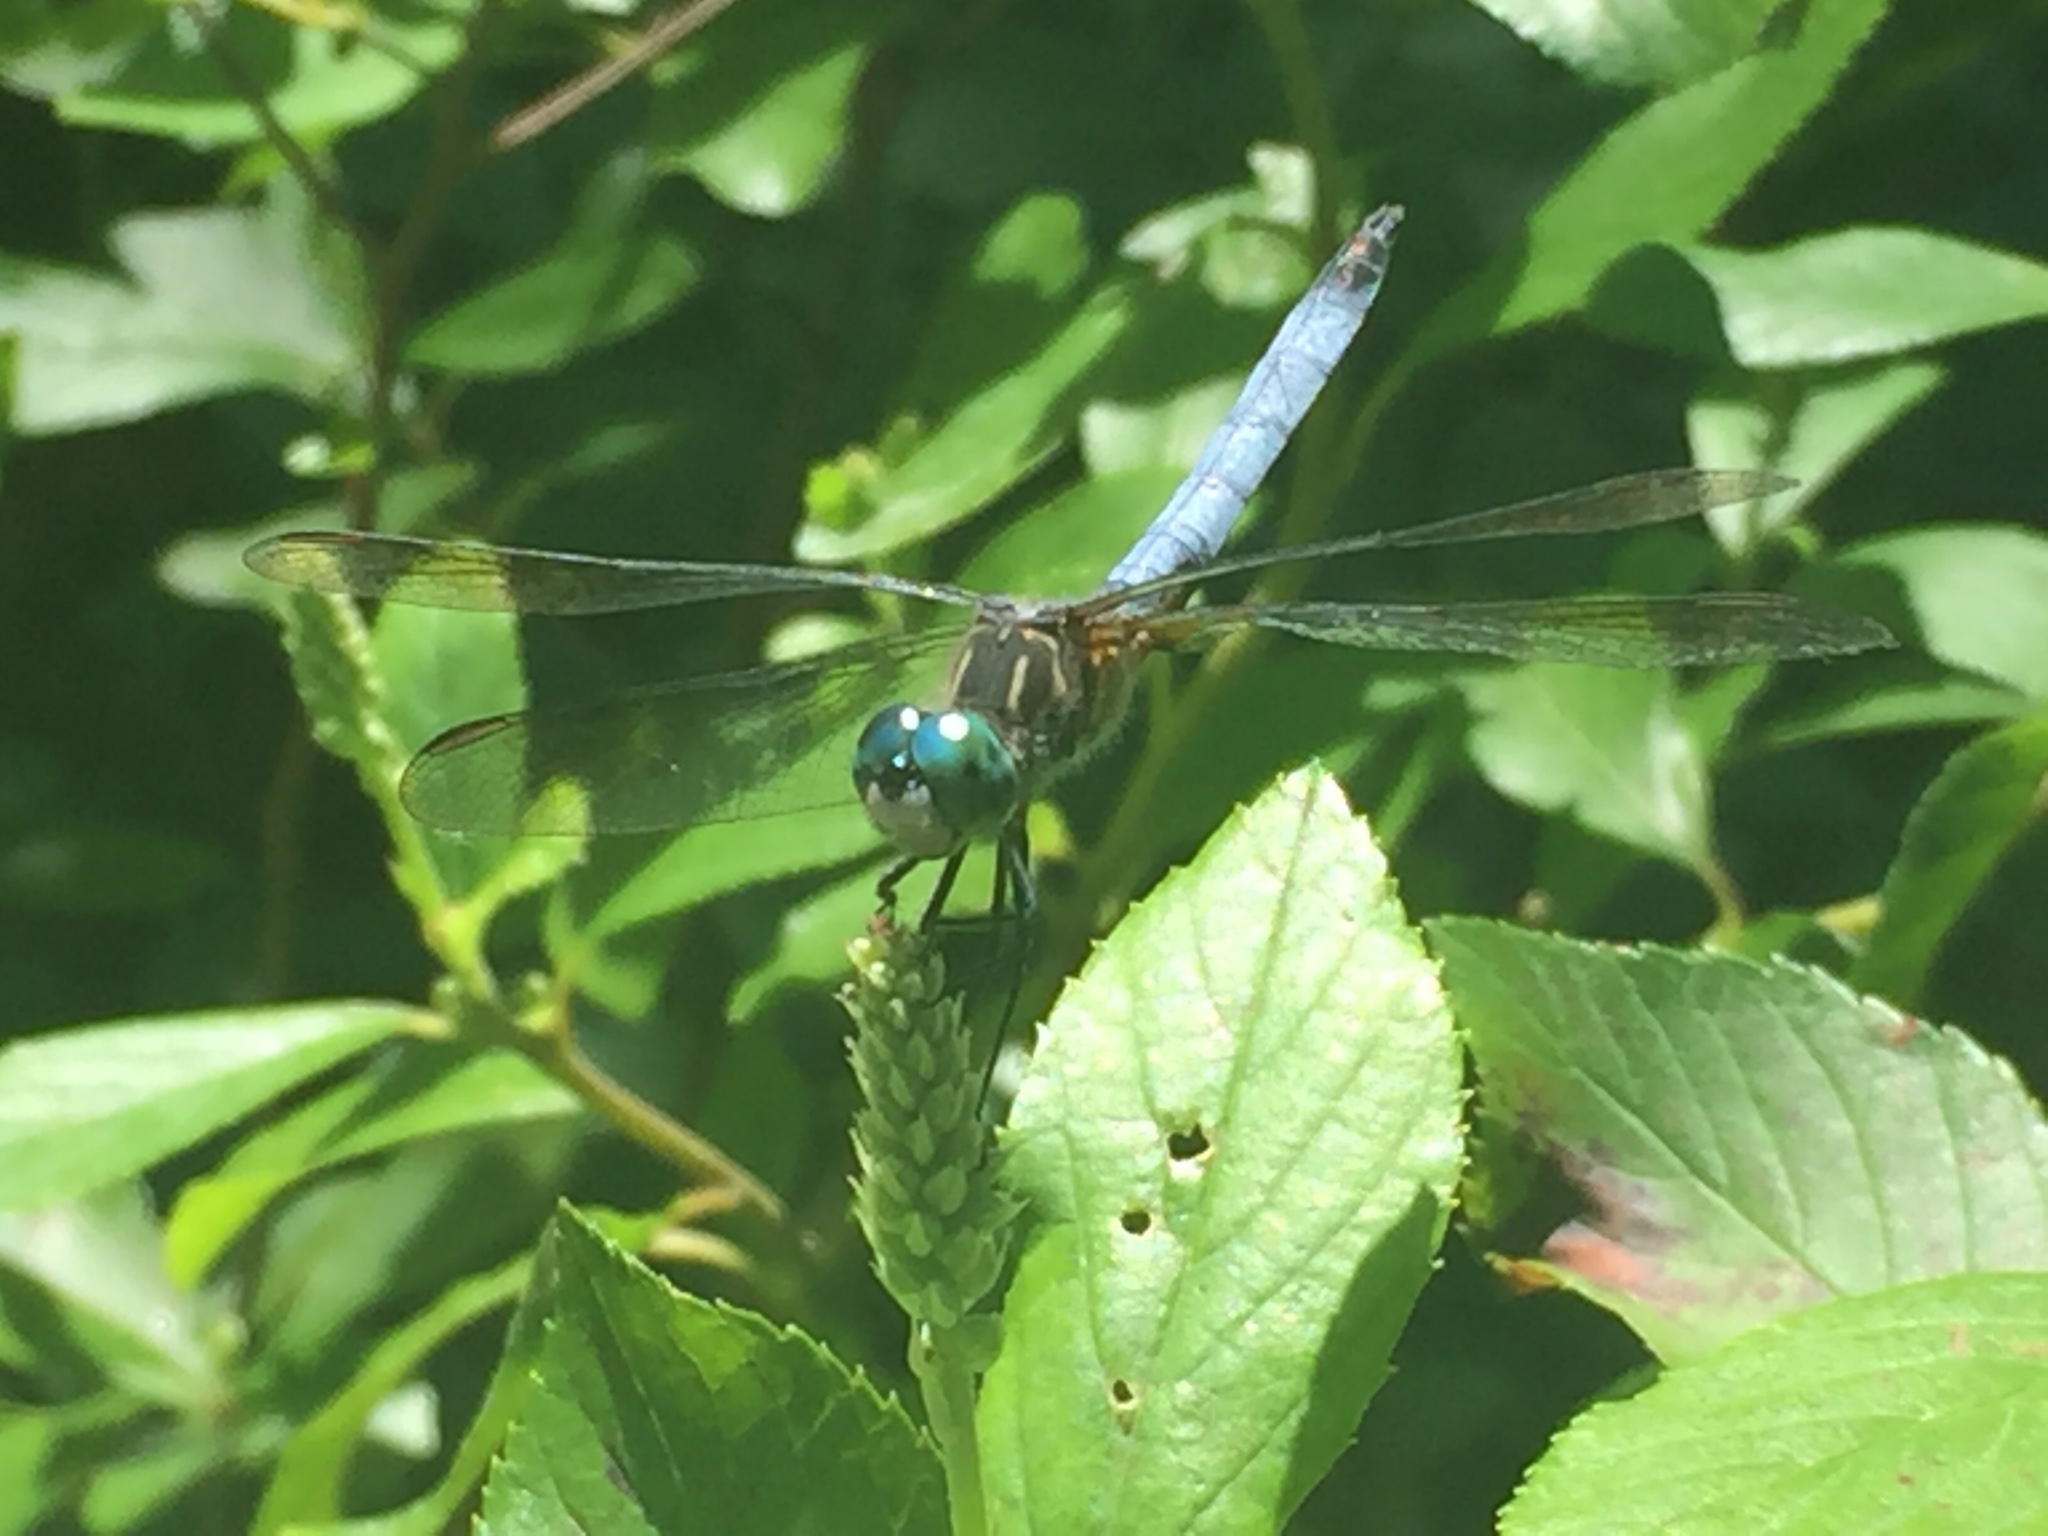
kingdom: Animalia
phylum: Arthropoda
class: Insecta
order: Odonata
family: Libellulidae
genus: Pachydiplax
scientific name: Pachydiplax longipennis
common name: Blue dasher
